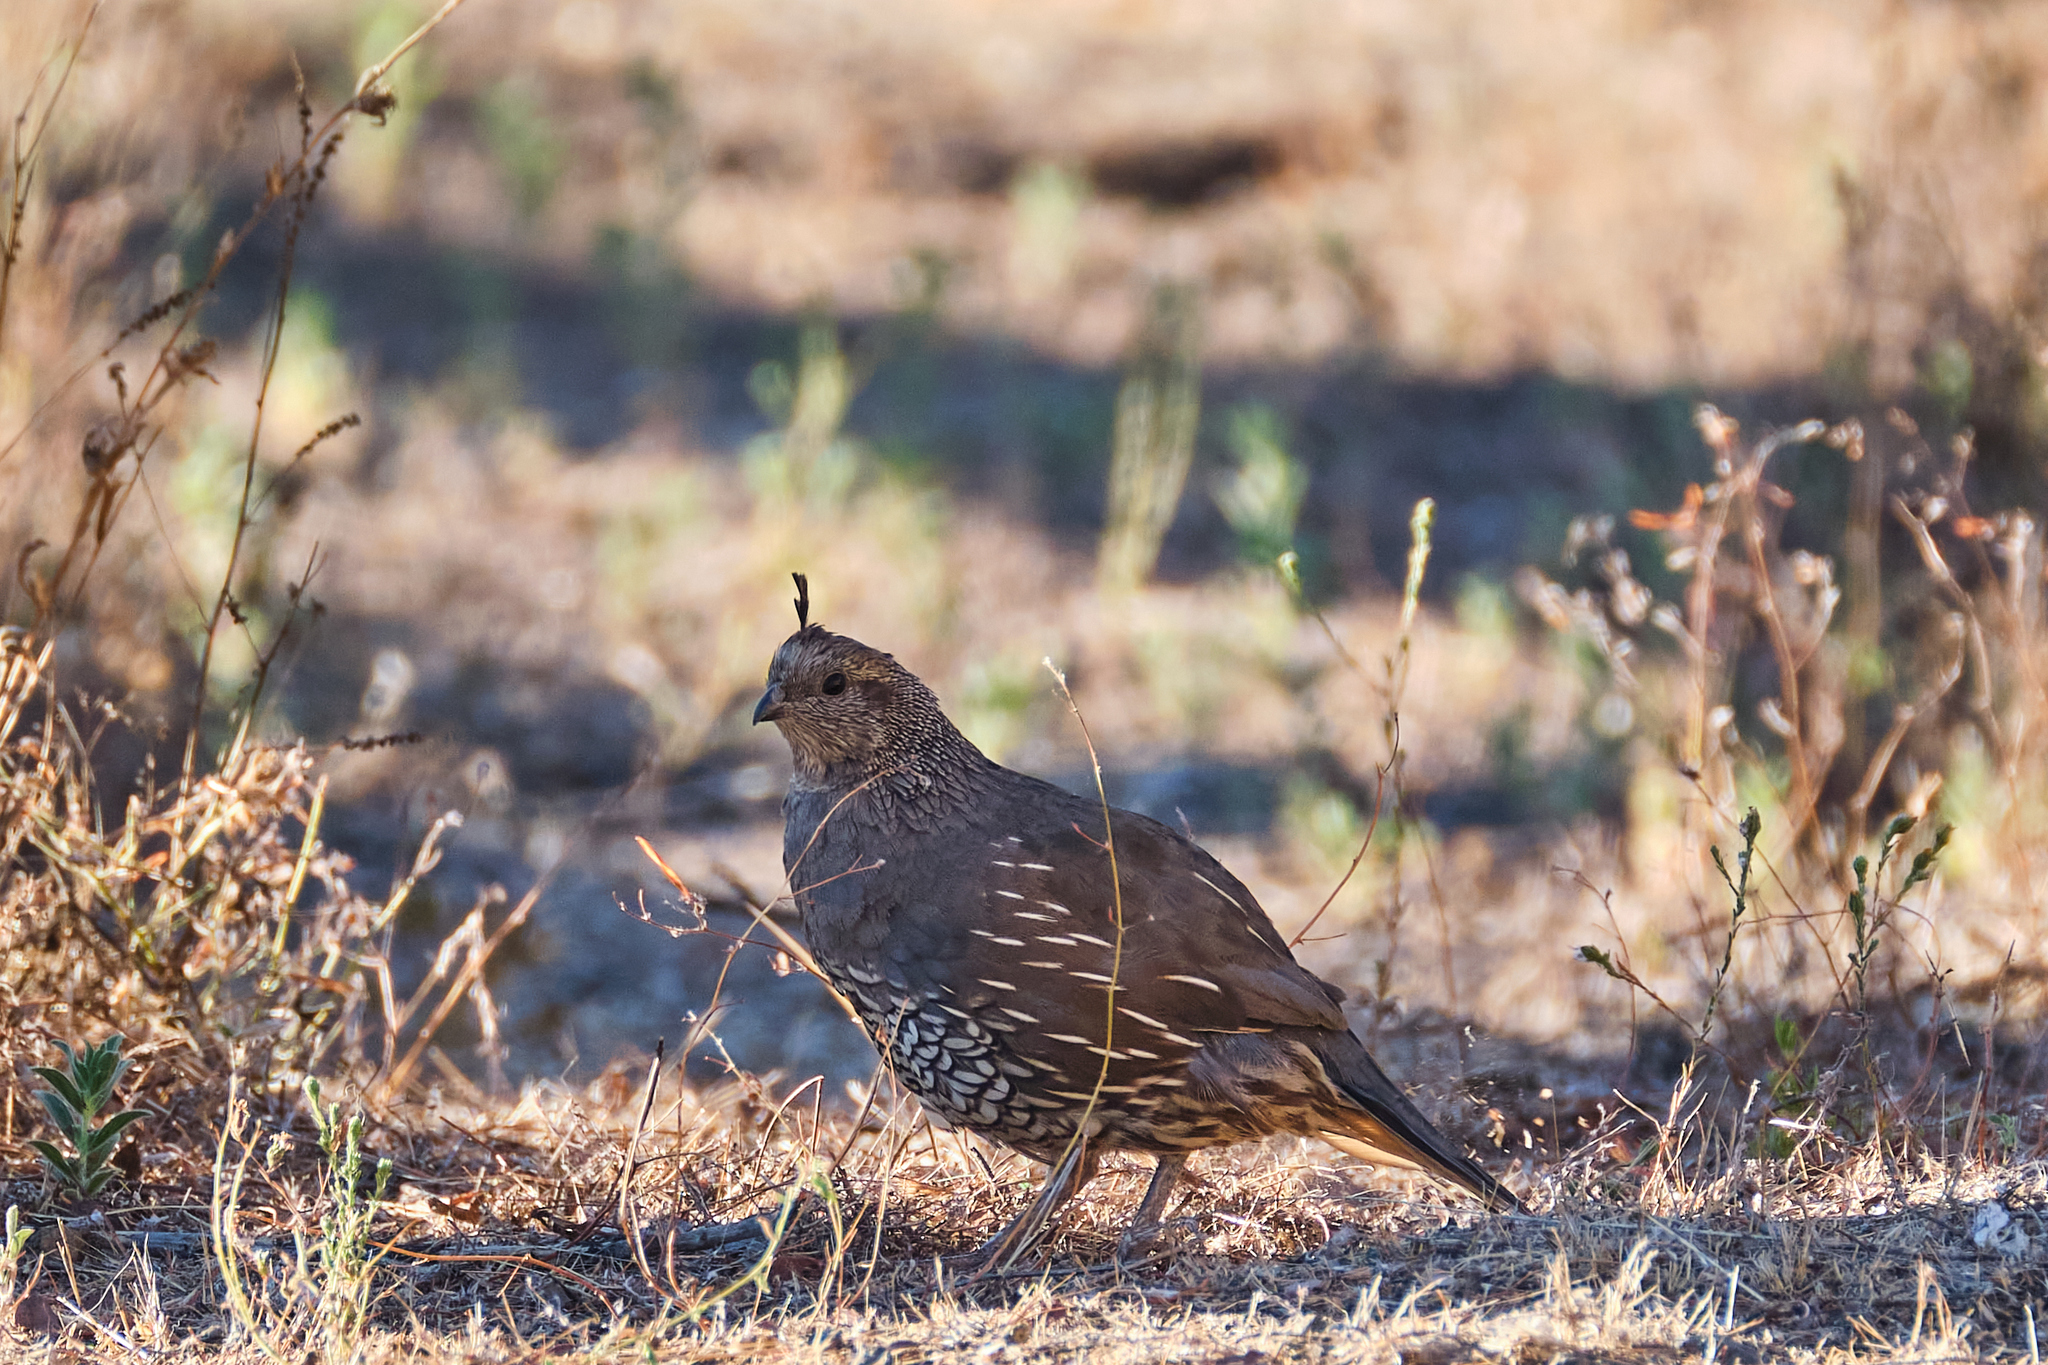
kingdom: Animalia
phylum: Chordata
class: Aves
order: Galliformes
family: Odontophoridae
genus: Callipepla
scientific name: Callipepla californica
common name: California quail
